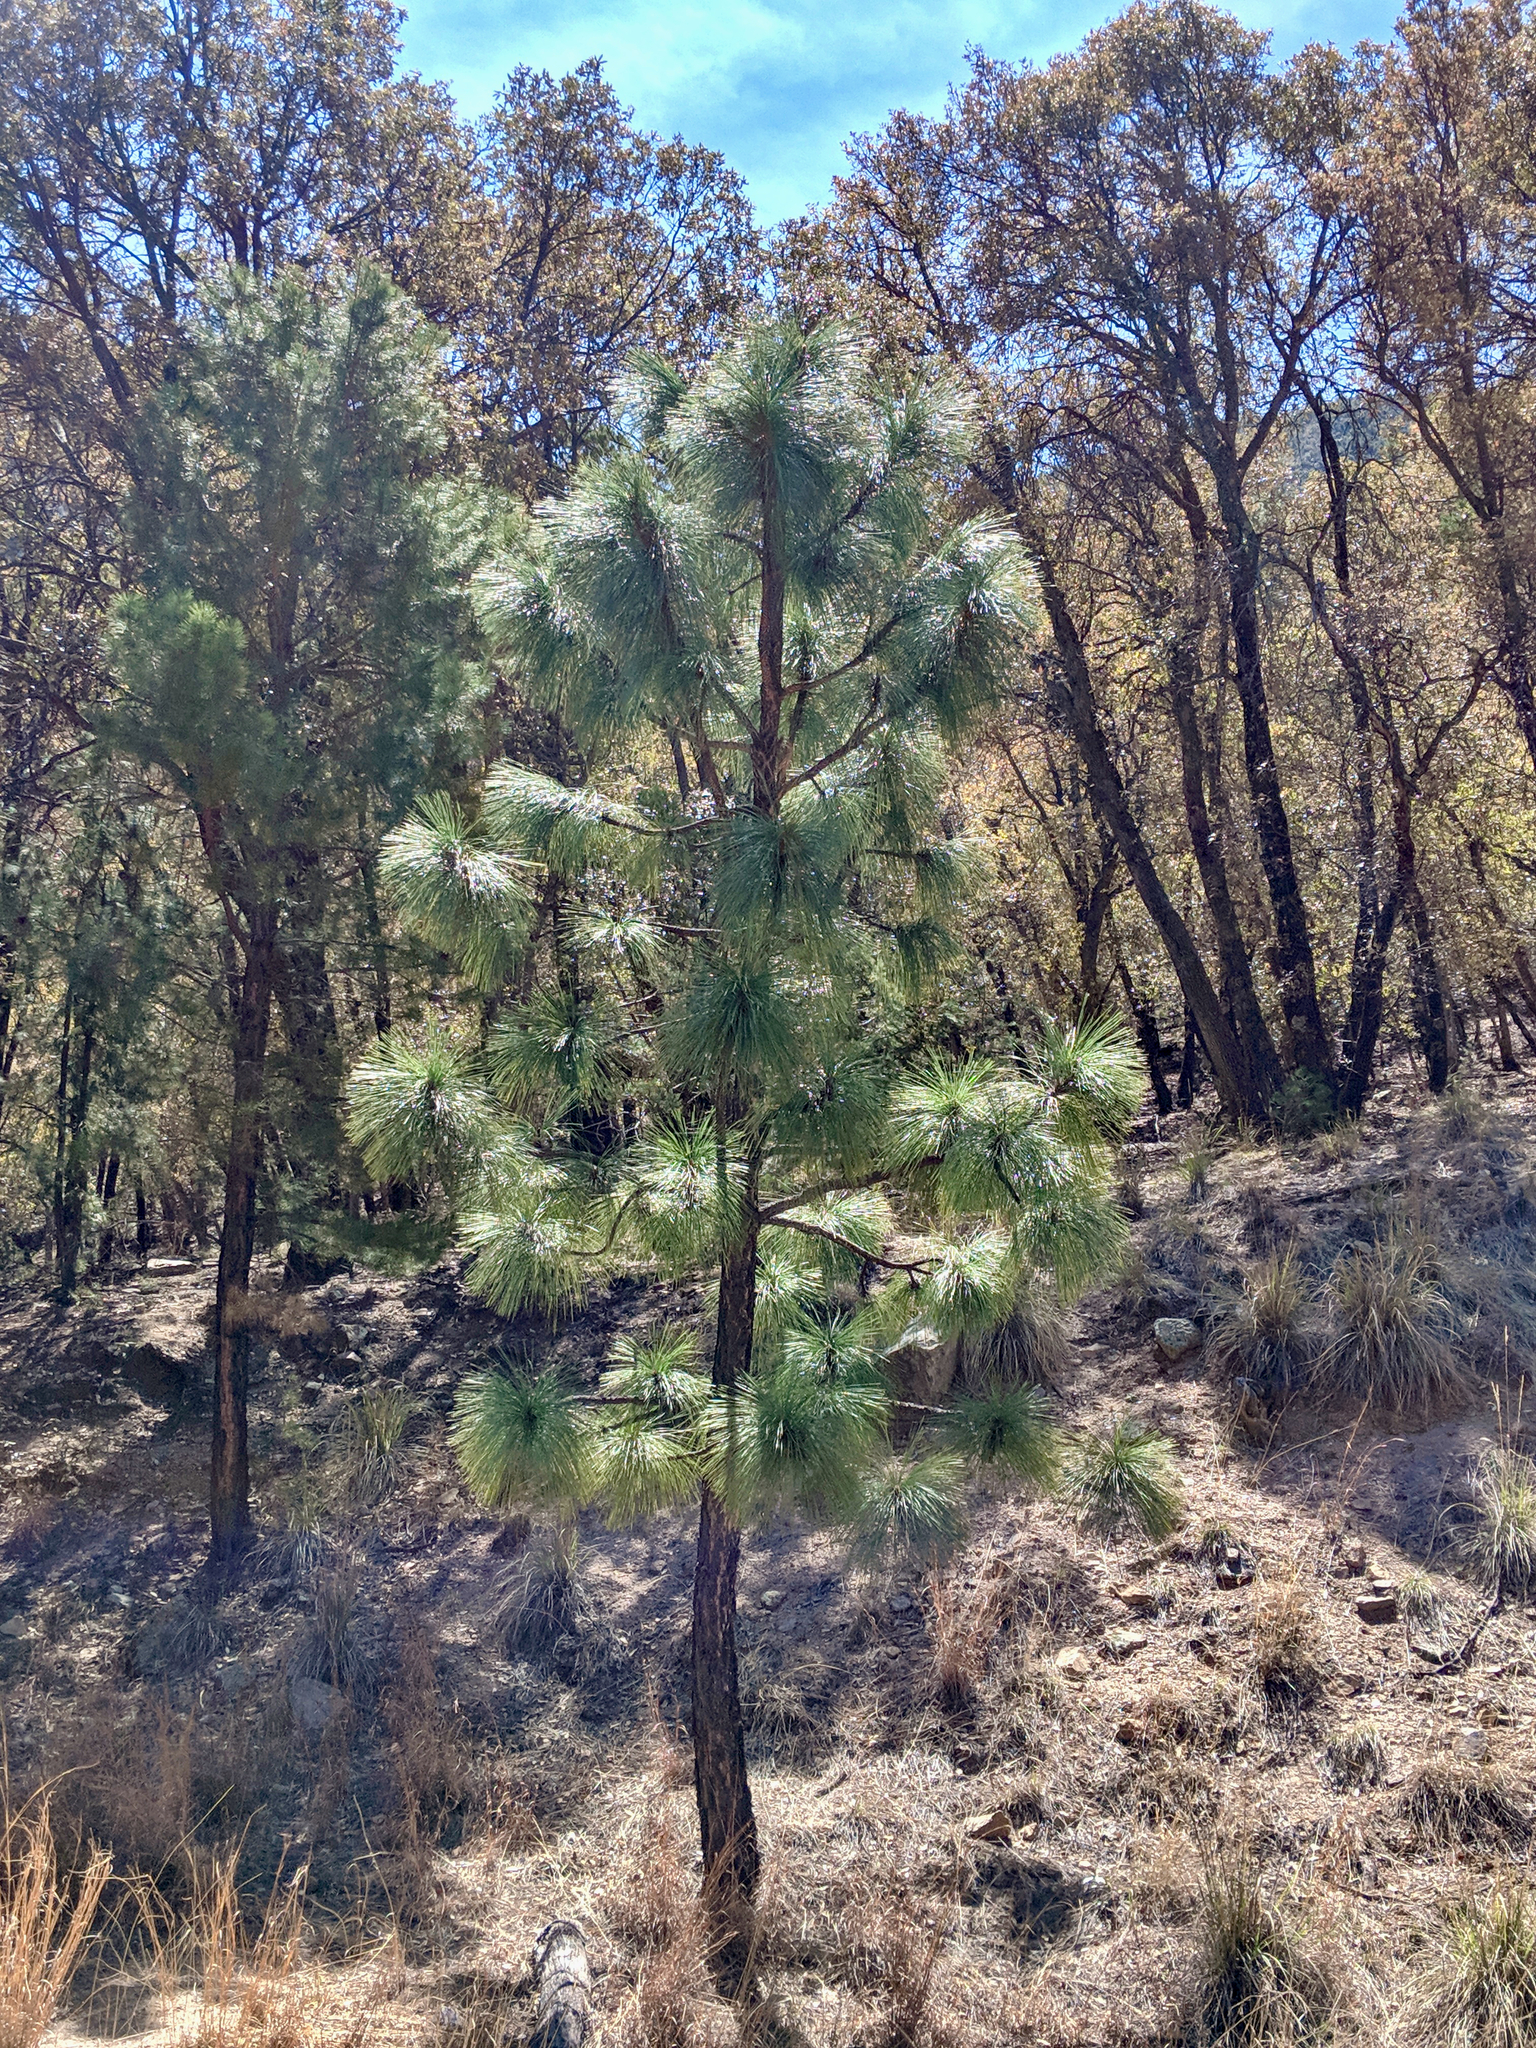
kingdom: Plantae
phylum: Tracheophyta
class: Pinopsida
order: Pinales
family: Pinaceae
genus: Pinus
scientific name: Pinus engelmannii
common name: Apache pine
